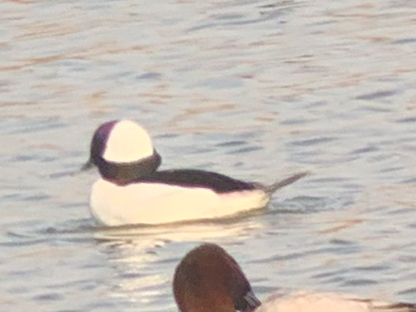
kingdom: Animalia
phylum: Chordata
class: Aves
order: Anseriformes
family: Anatidae
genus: Bucephala
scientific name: Bucephala albeola
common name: Bufflehead
